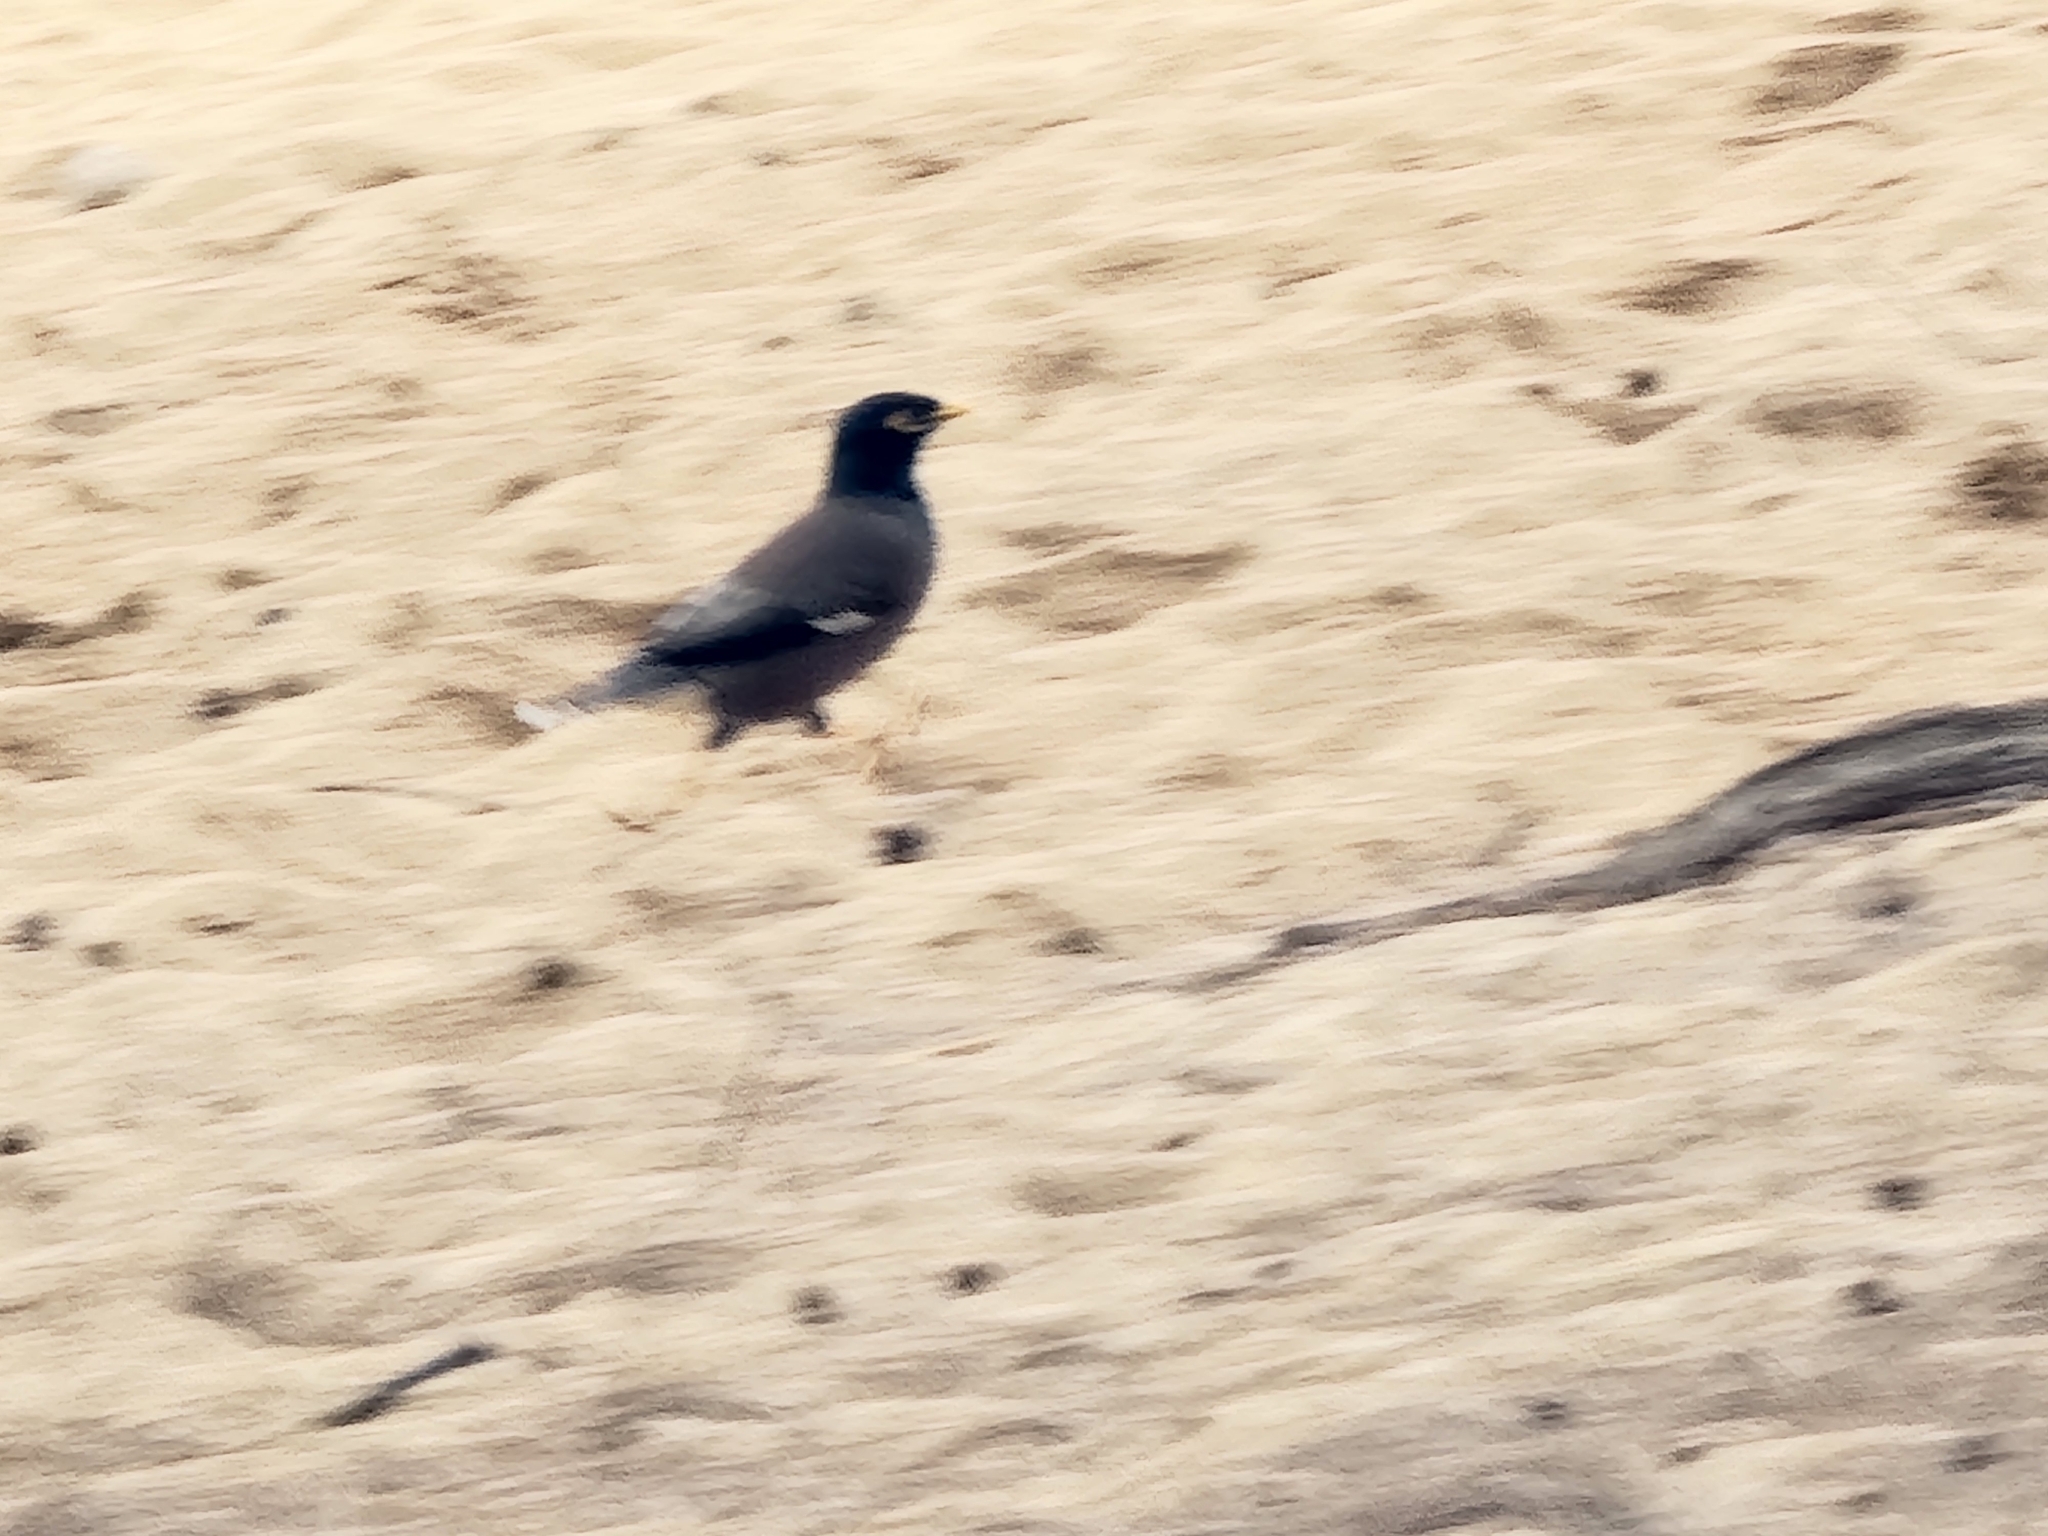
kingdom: Animalia
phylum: Chordata
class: Aves
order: Passeriformes
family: Sturnidae
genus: Acridotheres
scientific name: Acridotheres tristis
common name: Common myna
